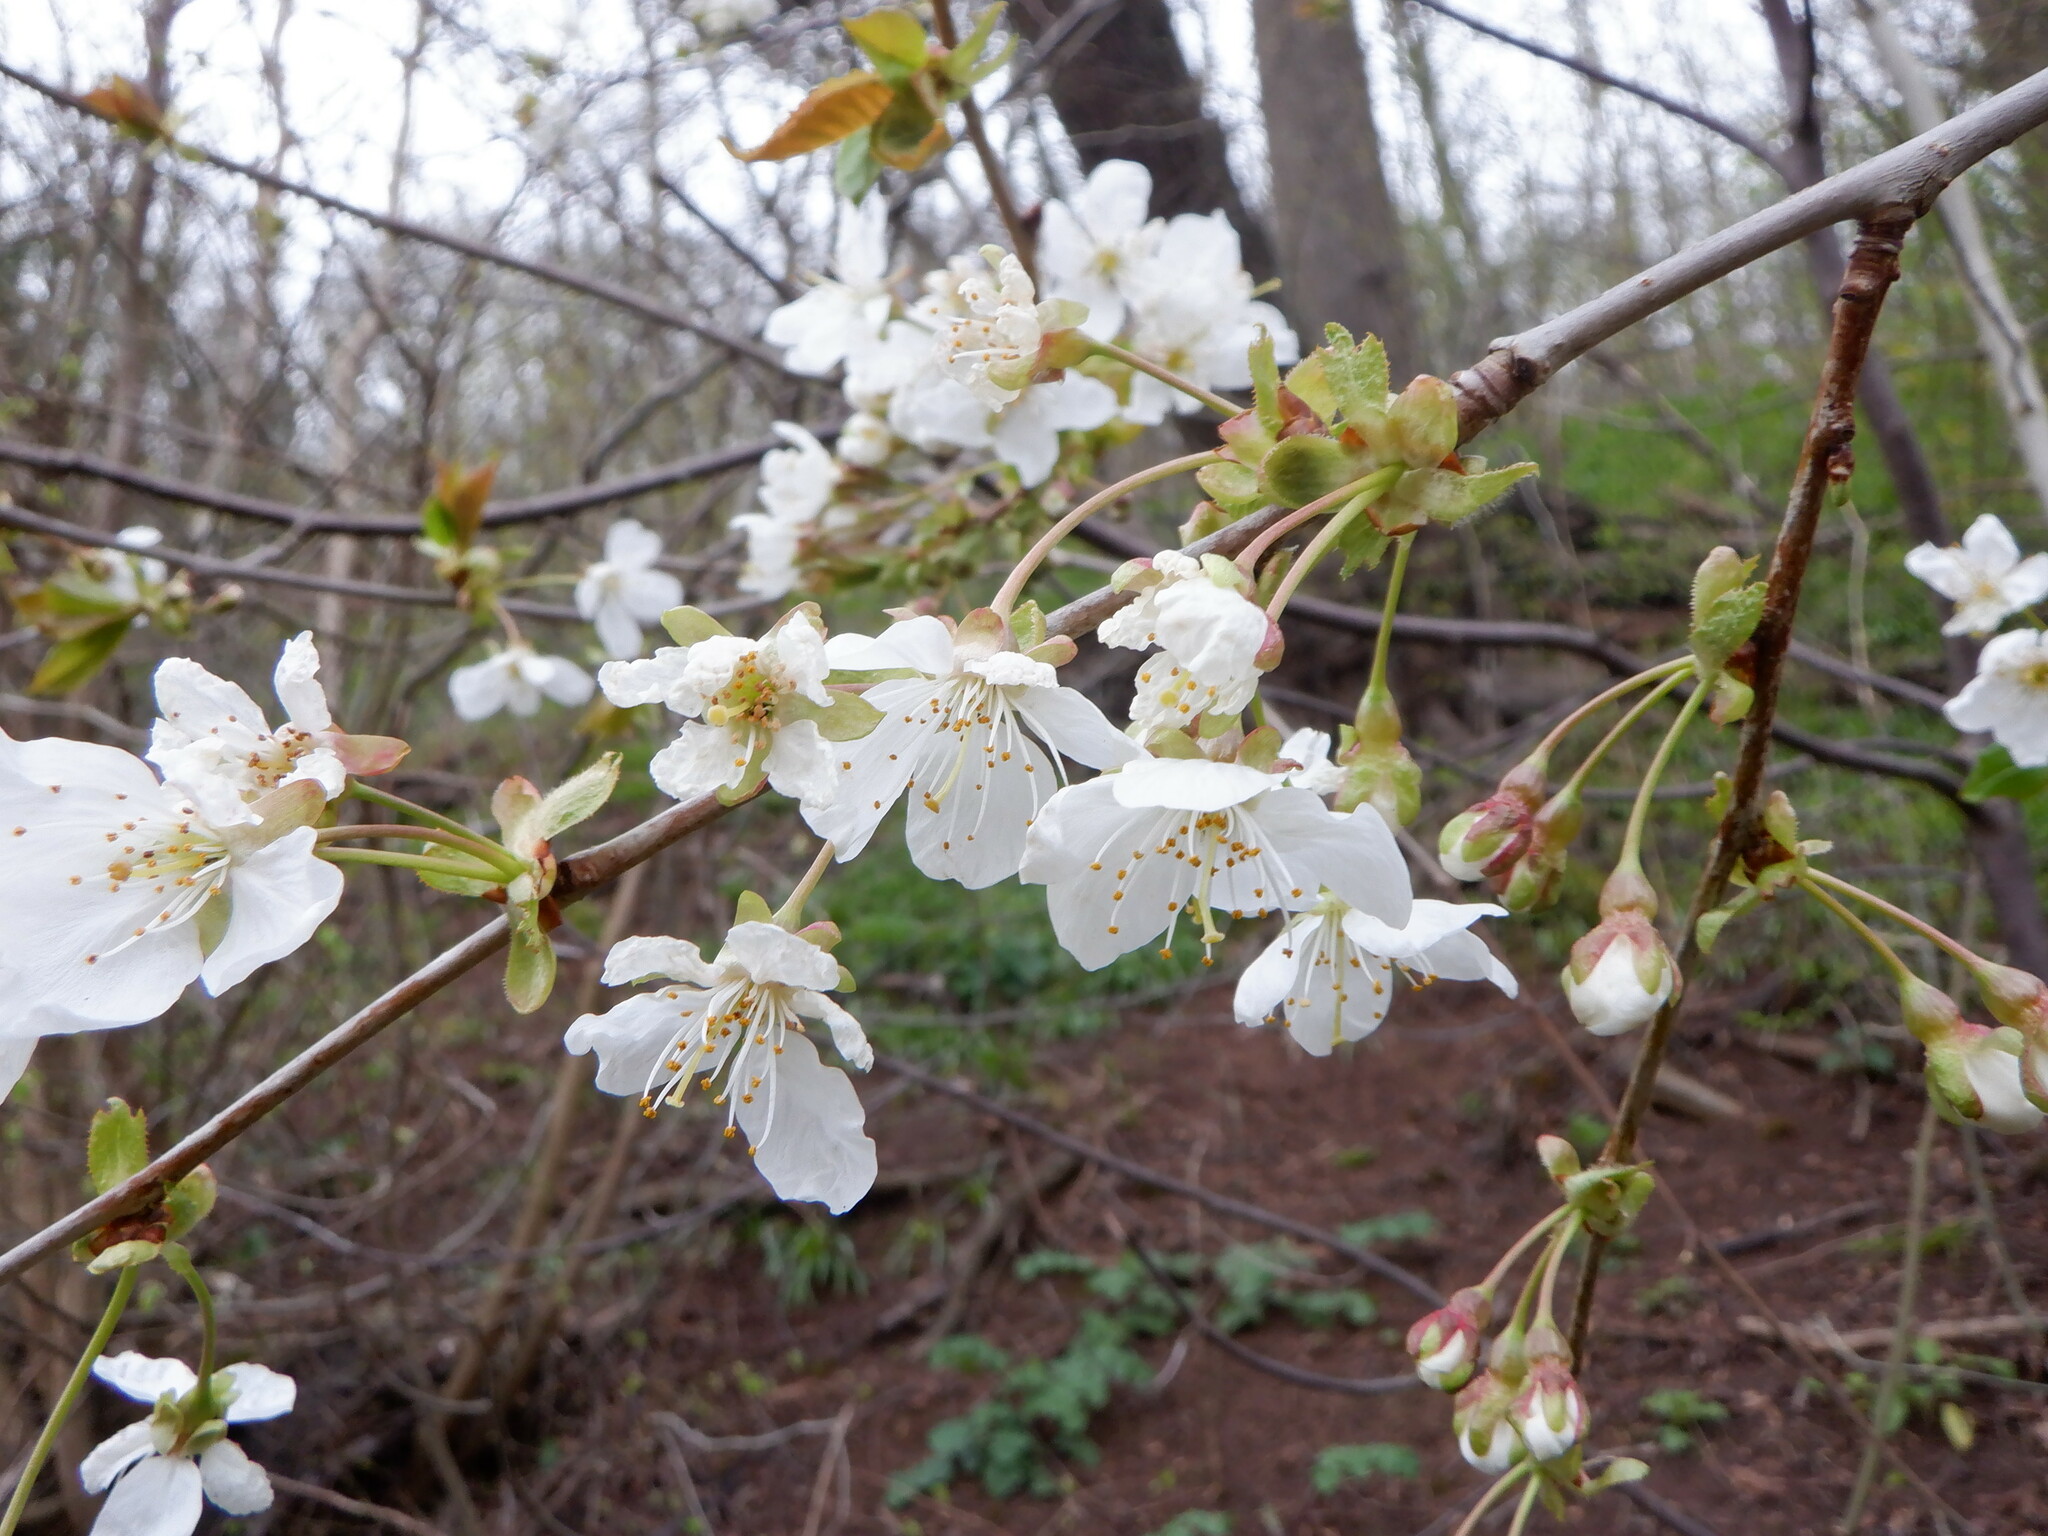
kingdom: Plantae
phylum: Tracheophyta
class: Magnoliopsida
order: Rosales
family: Rosaceae
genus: Prunus
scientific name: Prunus avium
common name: Sweet cherry
